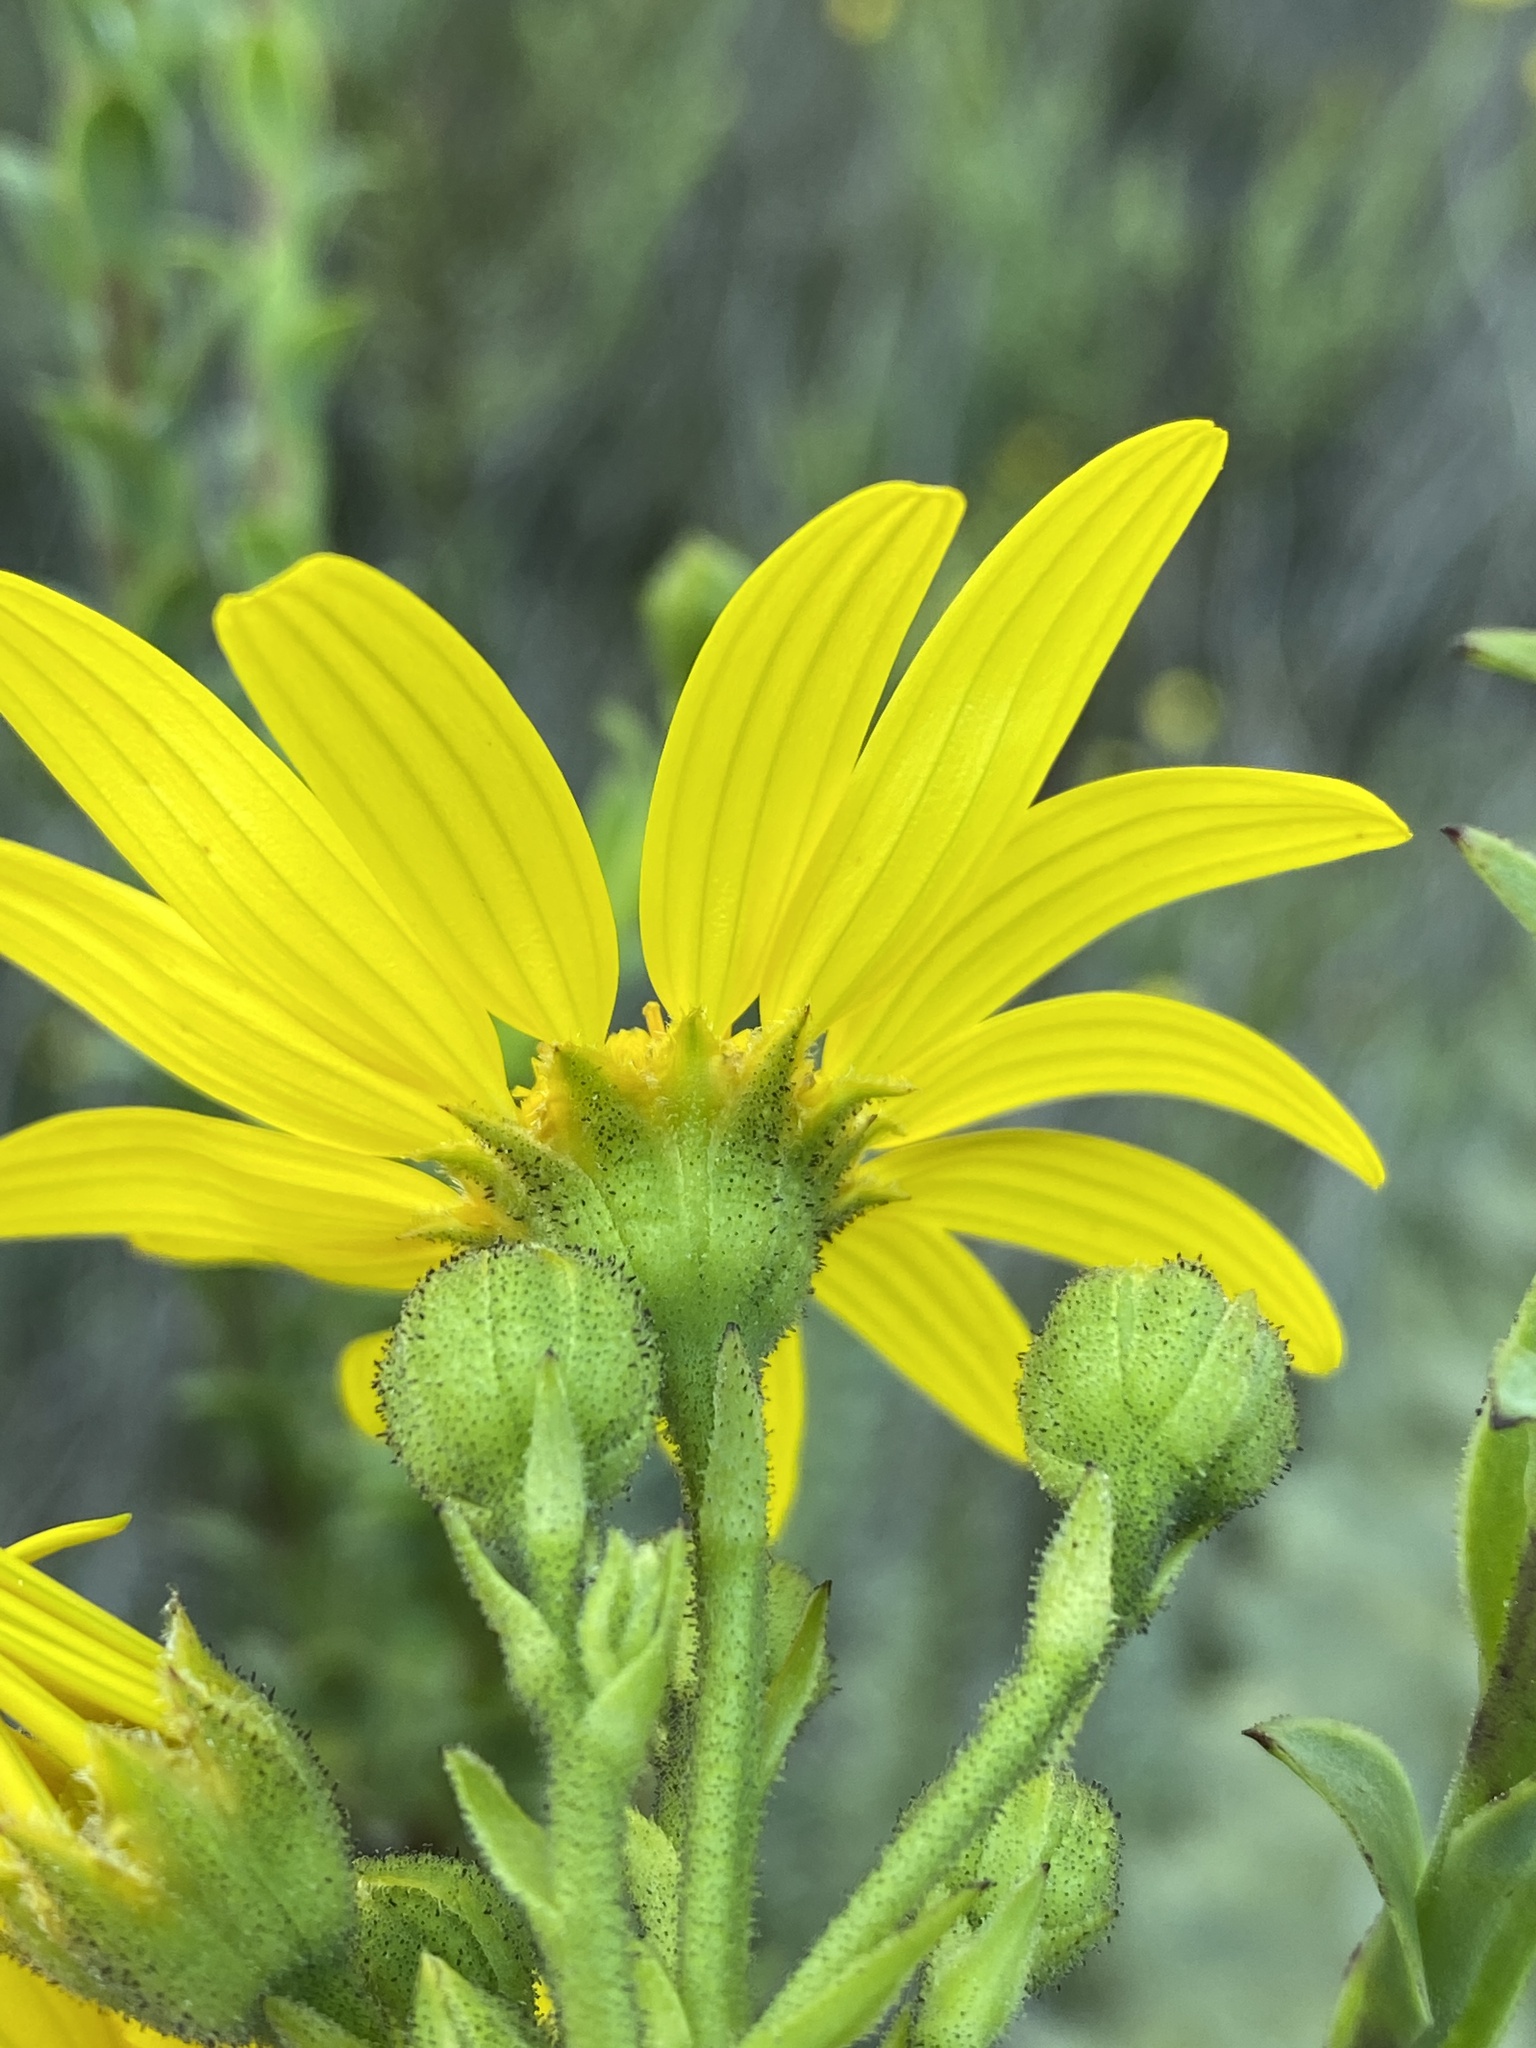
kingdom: Plantae
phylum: Tracheophyta
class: Magnoliopsida
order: Asterales
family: Asteraceae
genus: Osteospermum
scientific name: Osteospermum corymbosum
